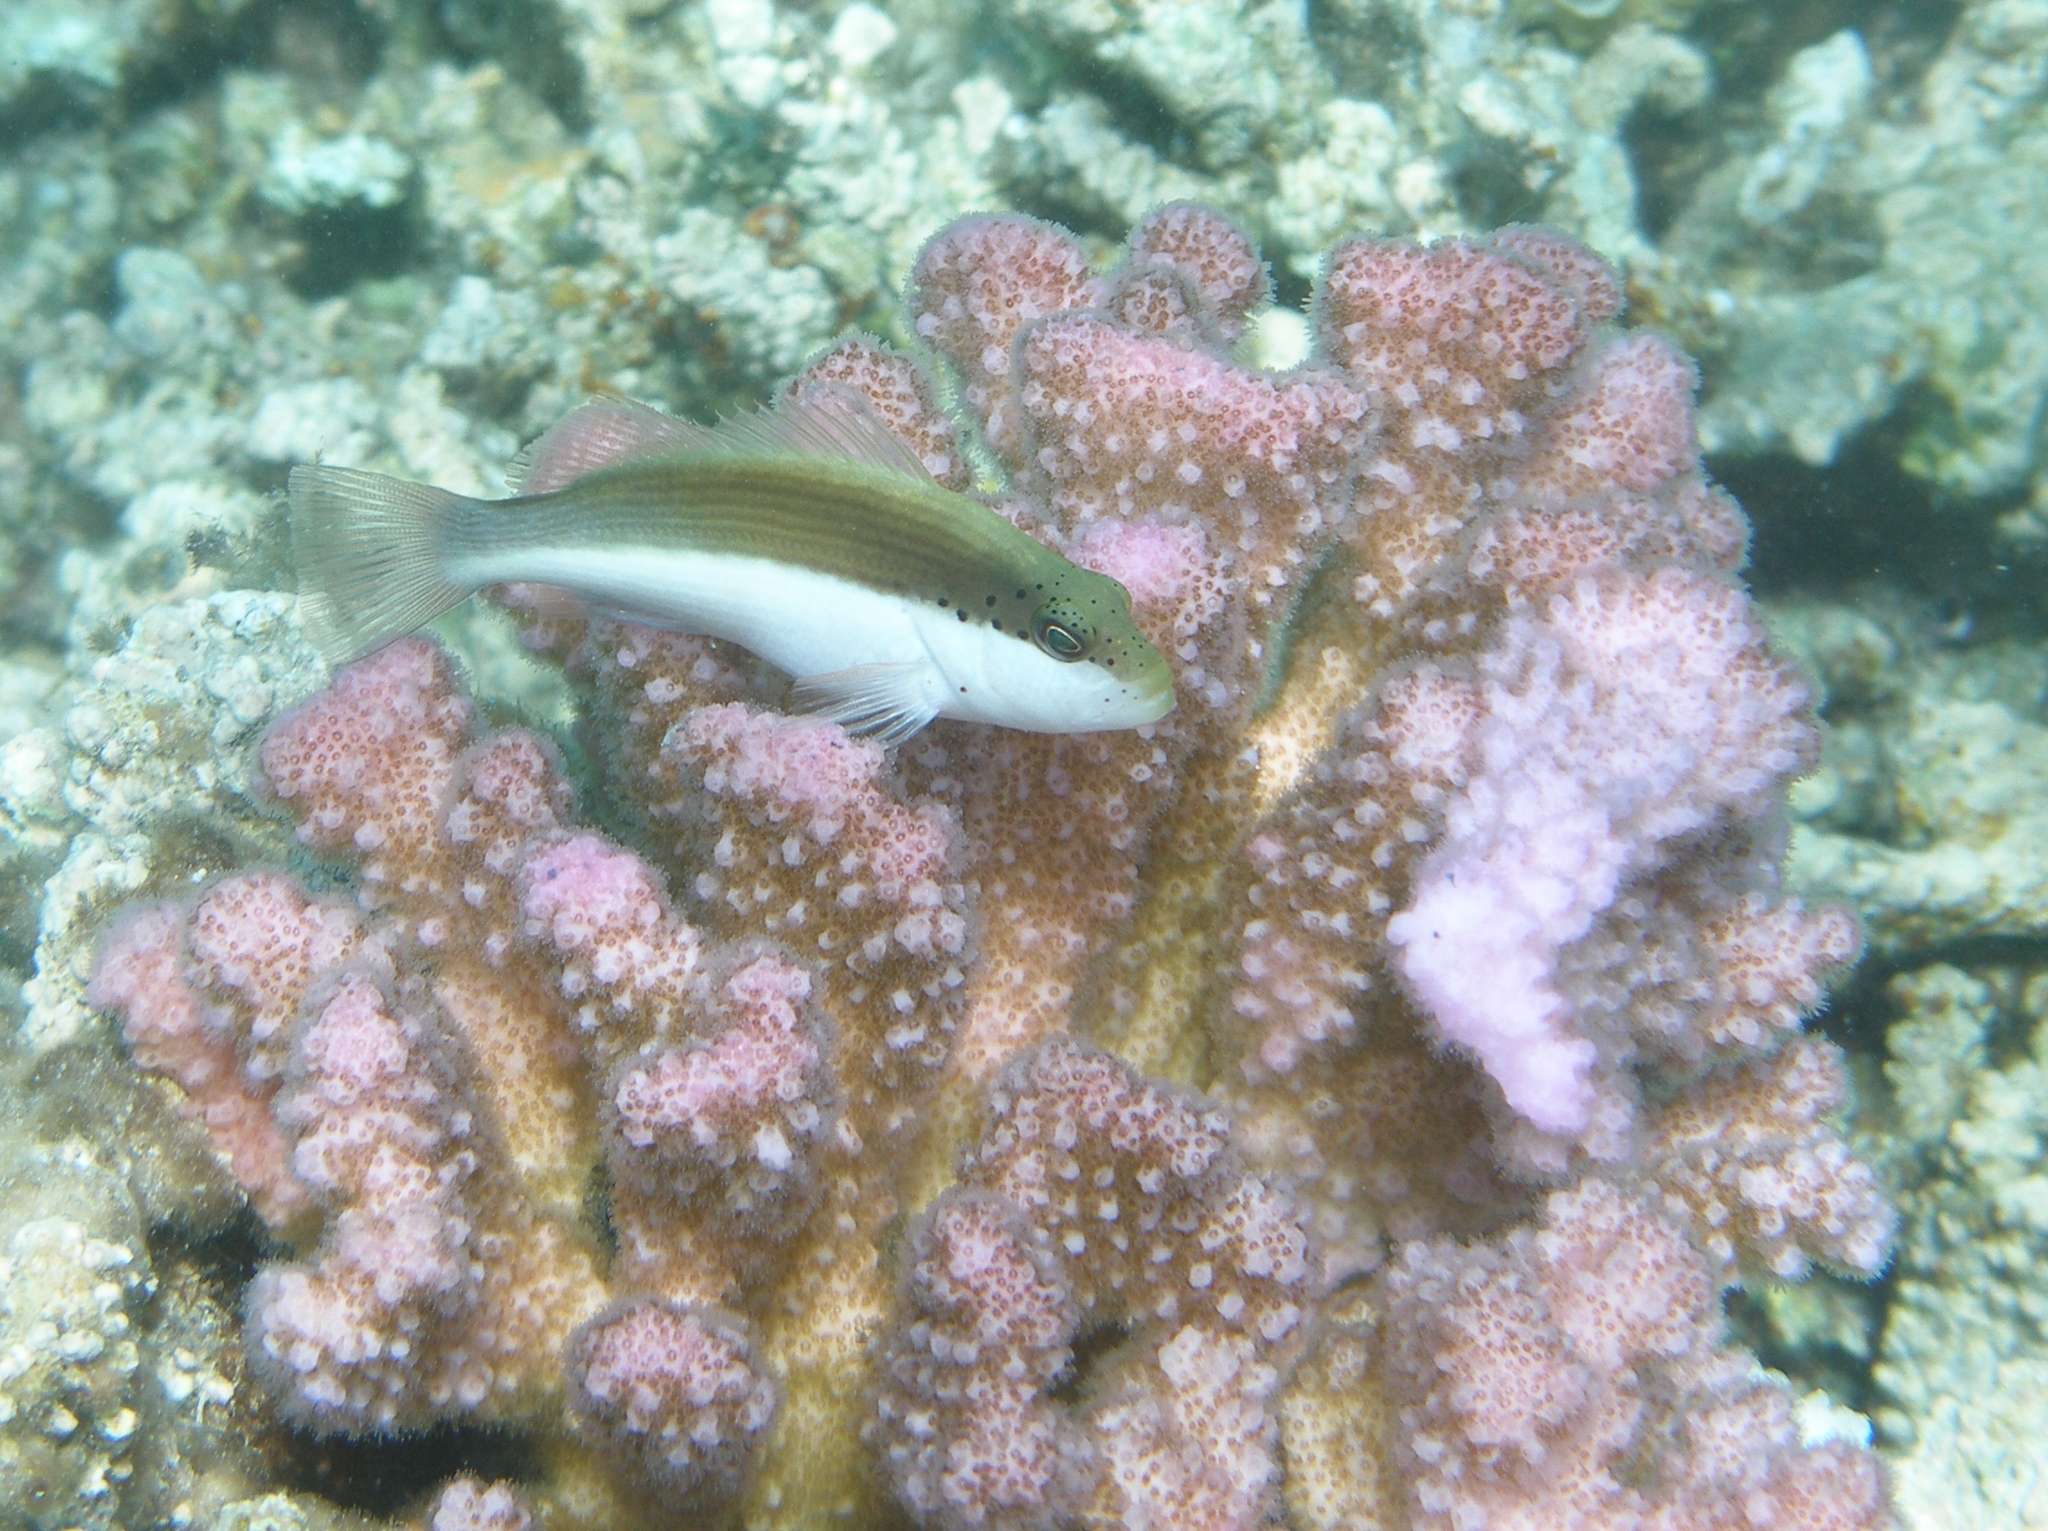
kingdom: Animalia
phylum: Chordata
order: Perciformes
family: Cirrhitidae
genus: Paracirrhites
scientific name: Paracirrhites forsteri
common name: Freckled hawkfish
